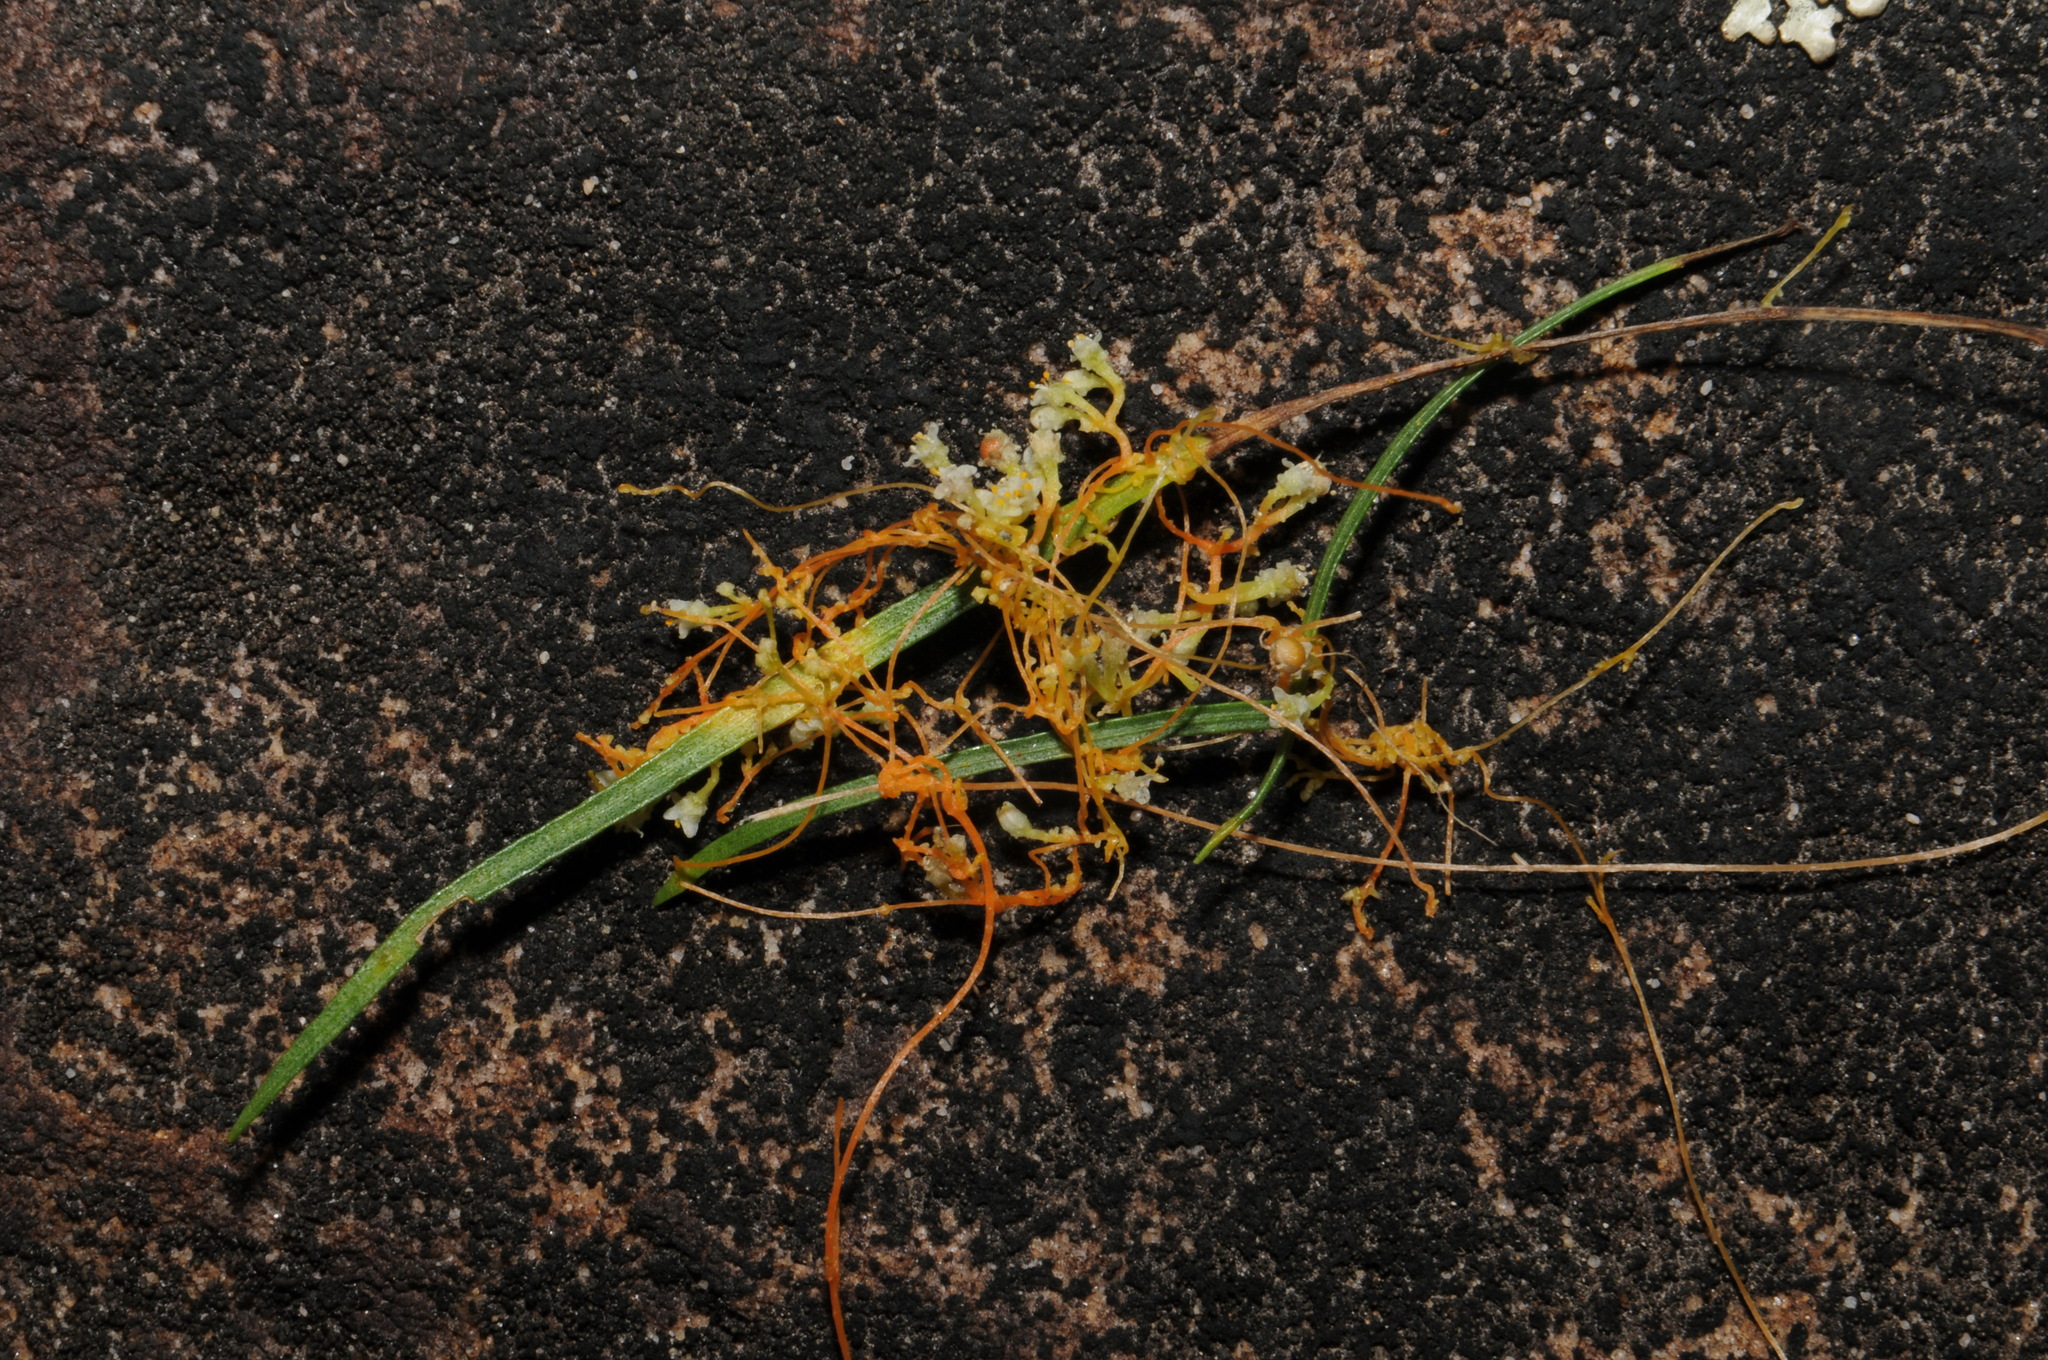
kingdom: Plantae
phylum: Tracheophyta
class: Magnoliopsida
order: Solanales
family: Convolvulaceae
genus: Cuscuta
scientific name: Cuscuta harperi
